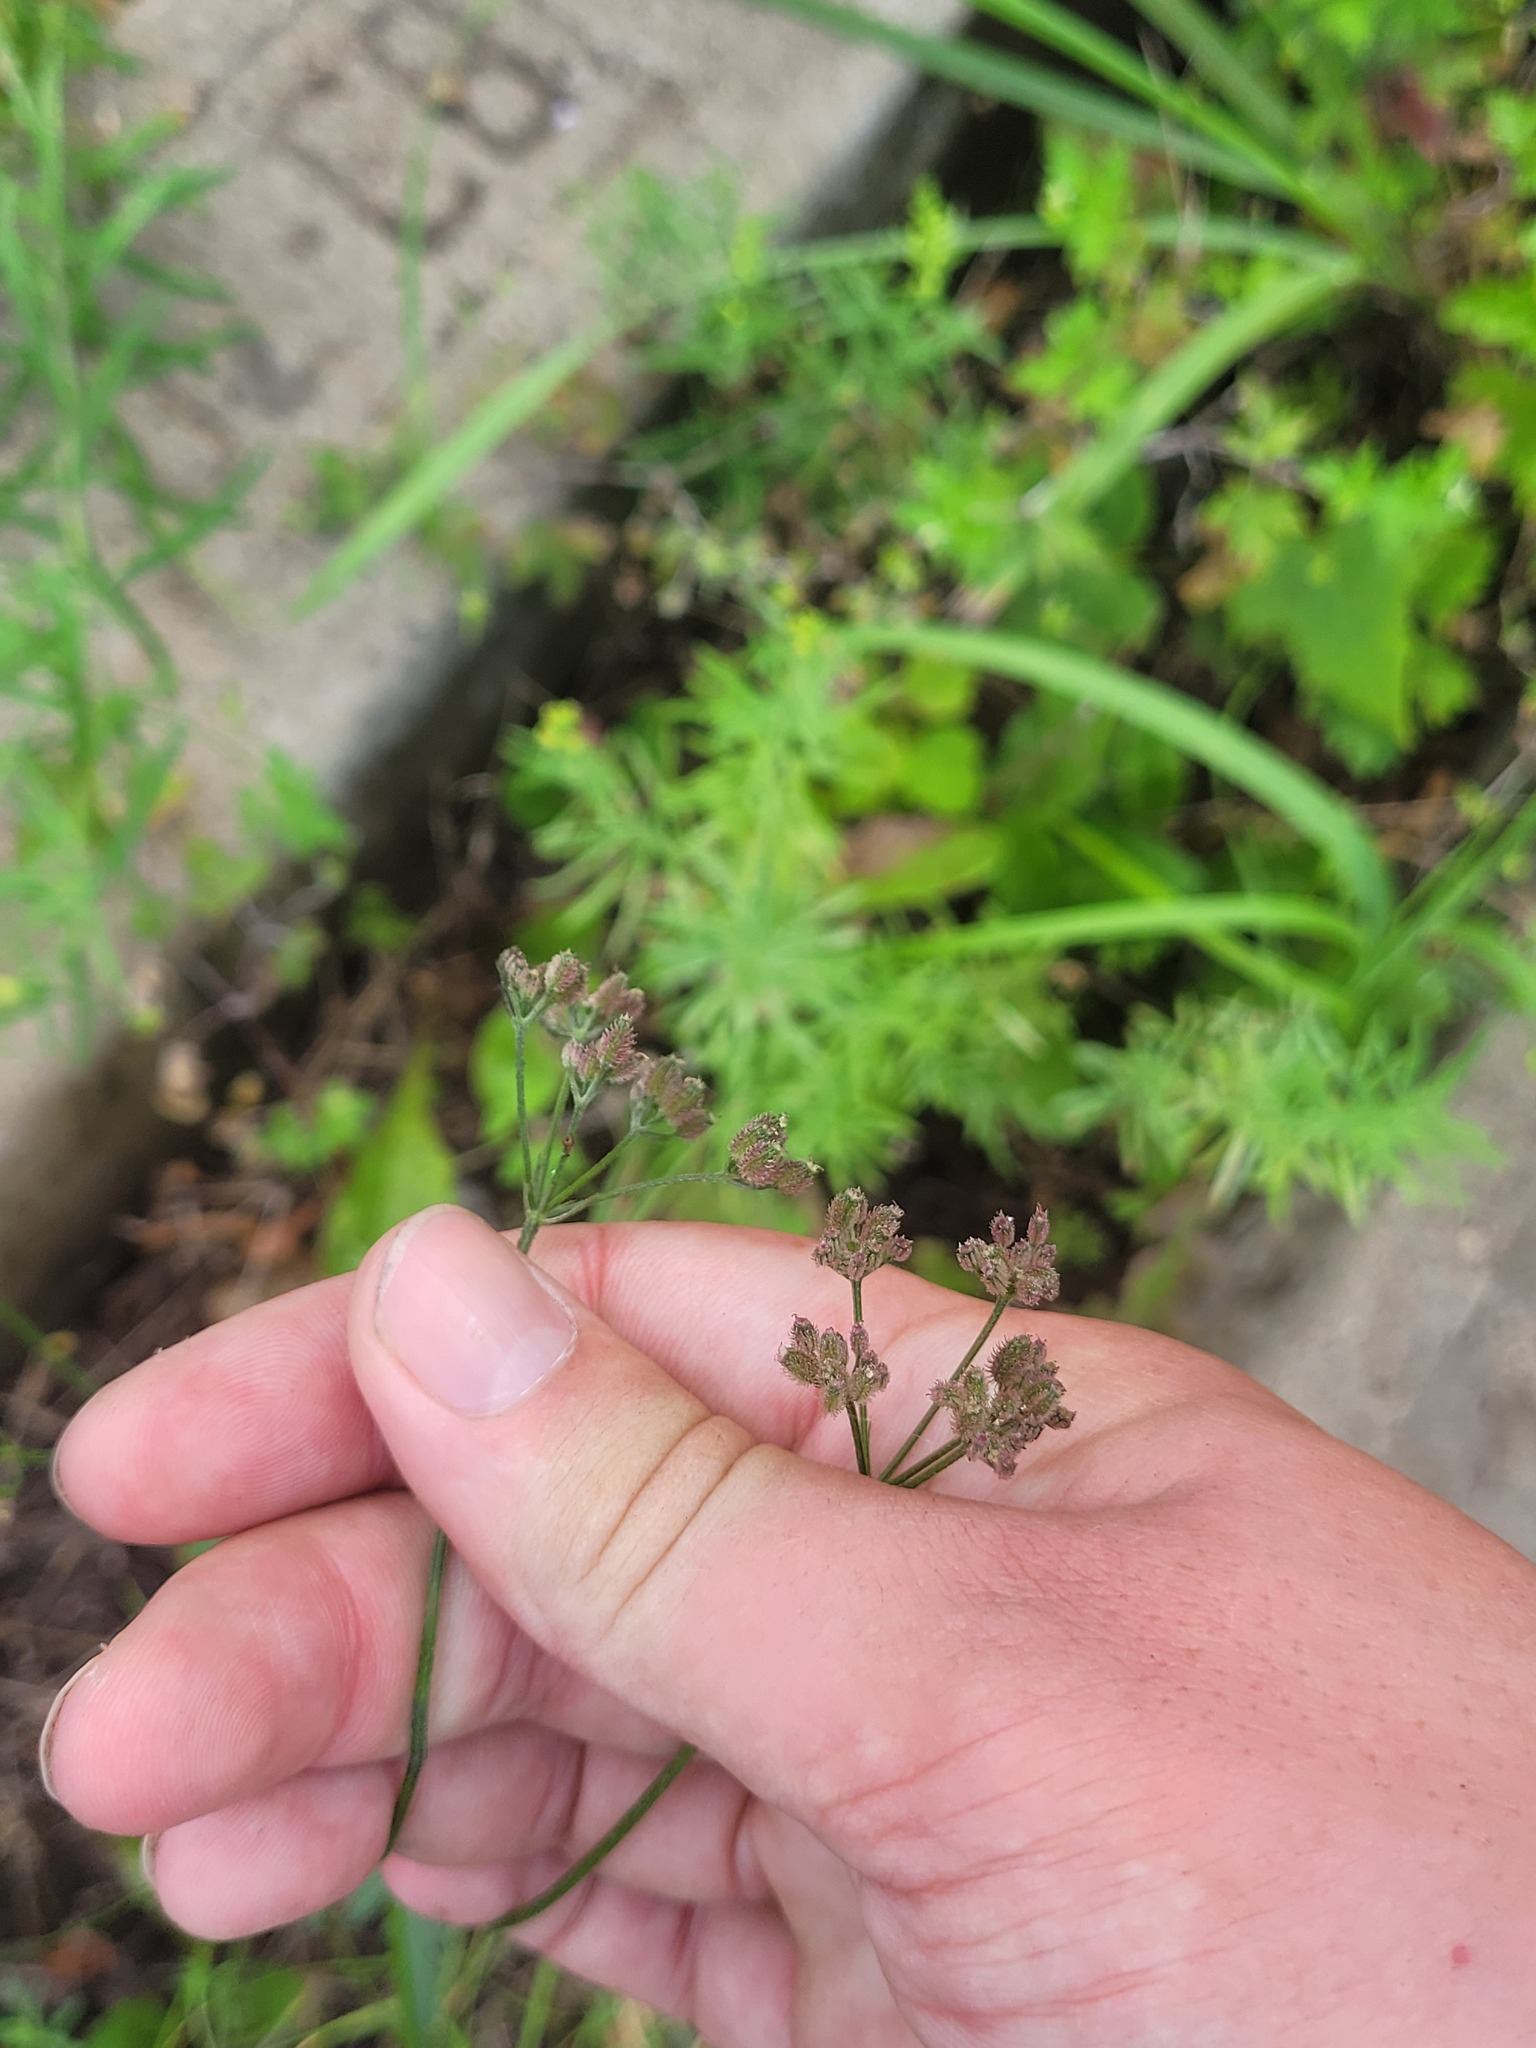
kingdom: Plantae
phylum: Tracheophyta
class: Magnoliopsida
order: Apiales
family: Apiaceae
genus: Torilis
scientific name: Torilis japonica
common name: Upright hedge-parsley
